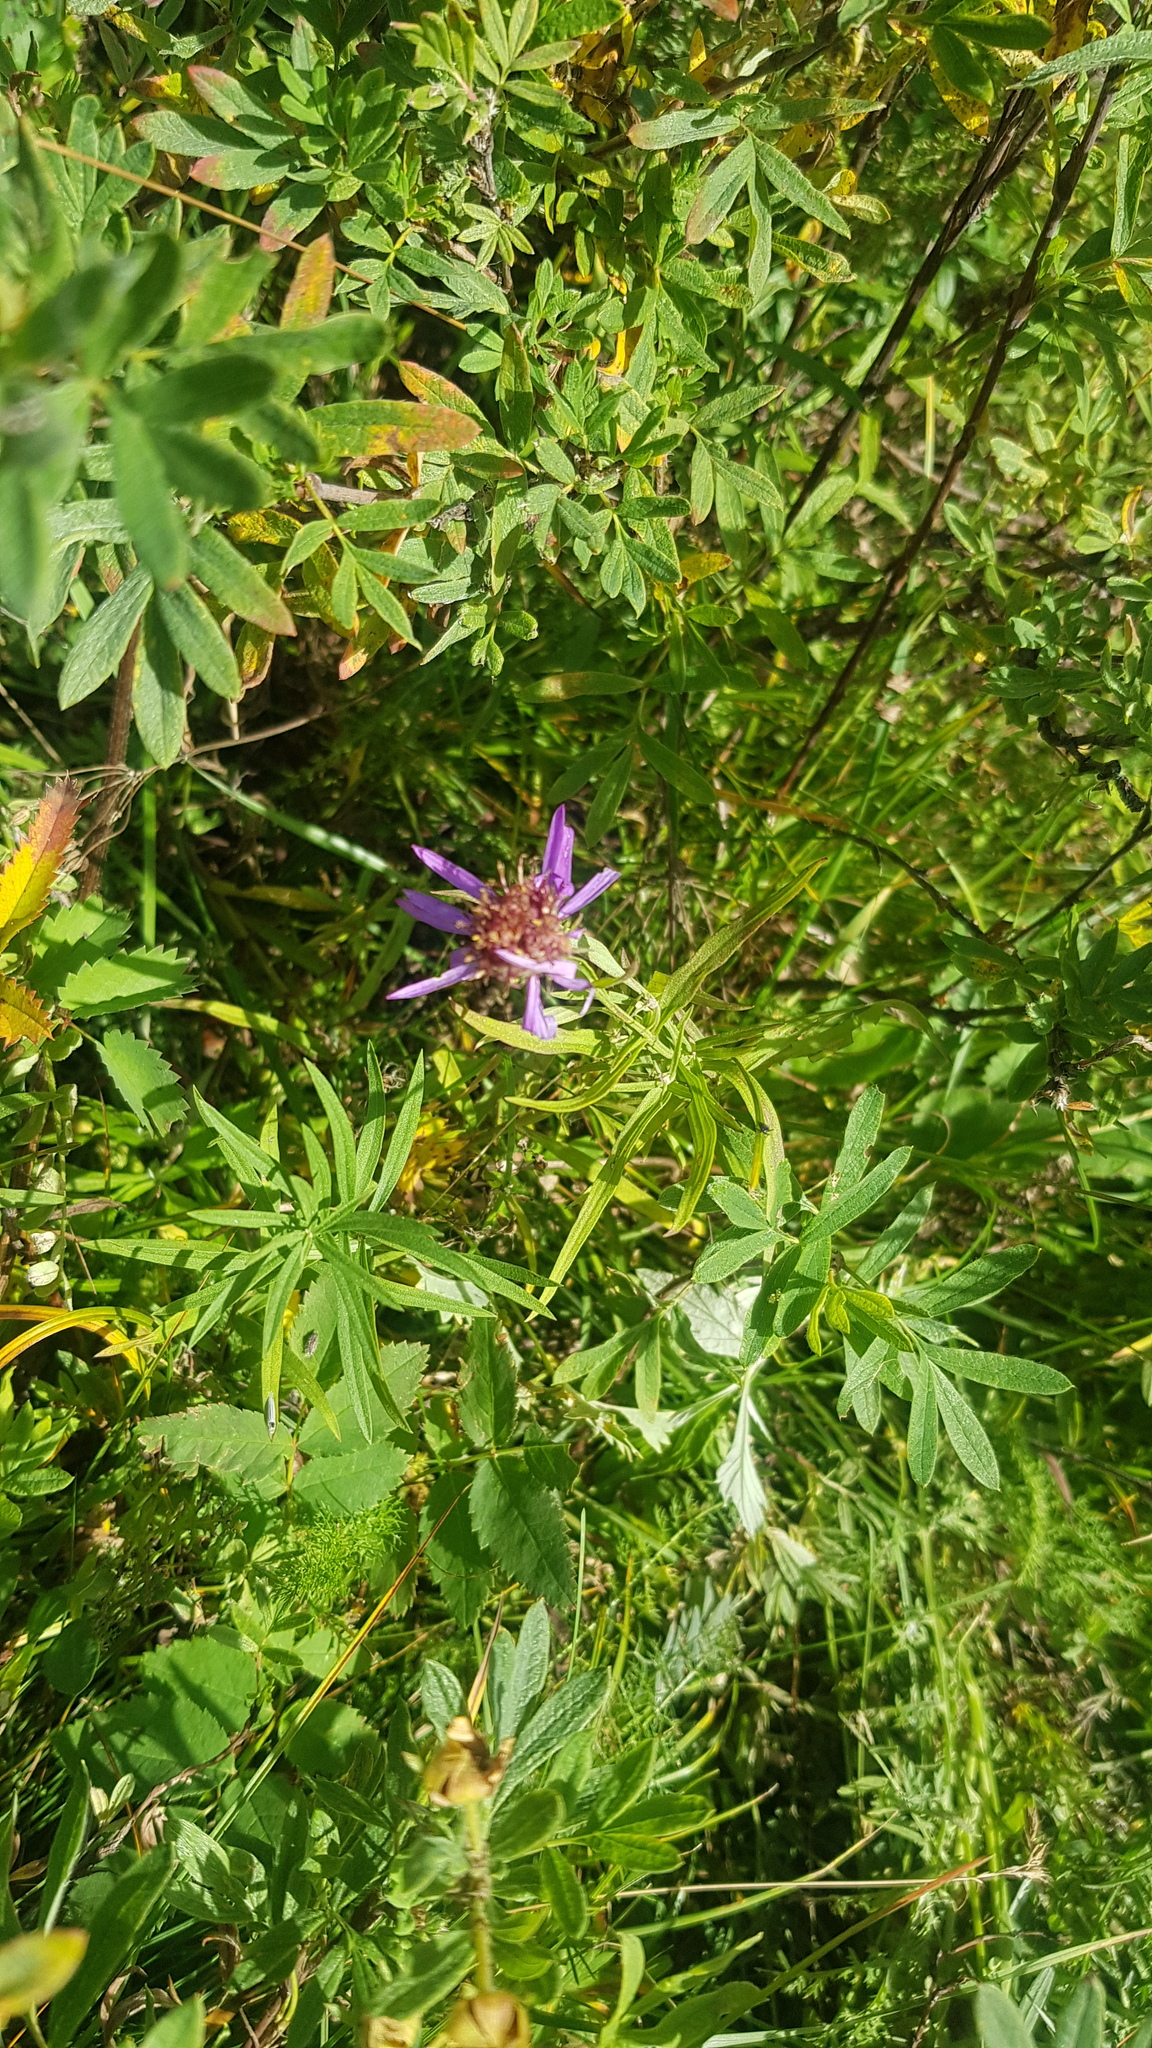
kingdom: Plantae
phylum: Tracheophyta
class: Magnoliopsida
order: Asterales
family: Asteraceae
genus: Galatella
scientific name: Galatella dahurica
